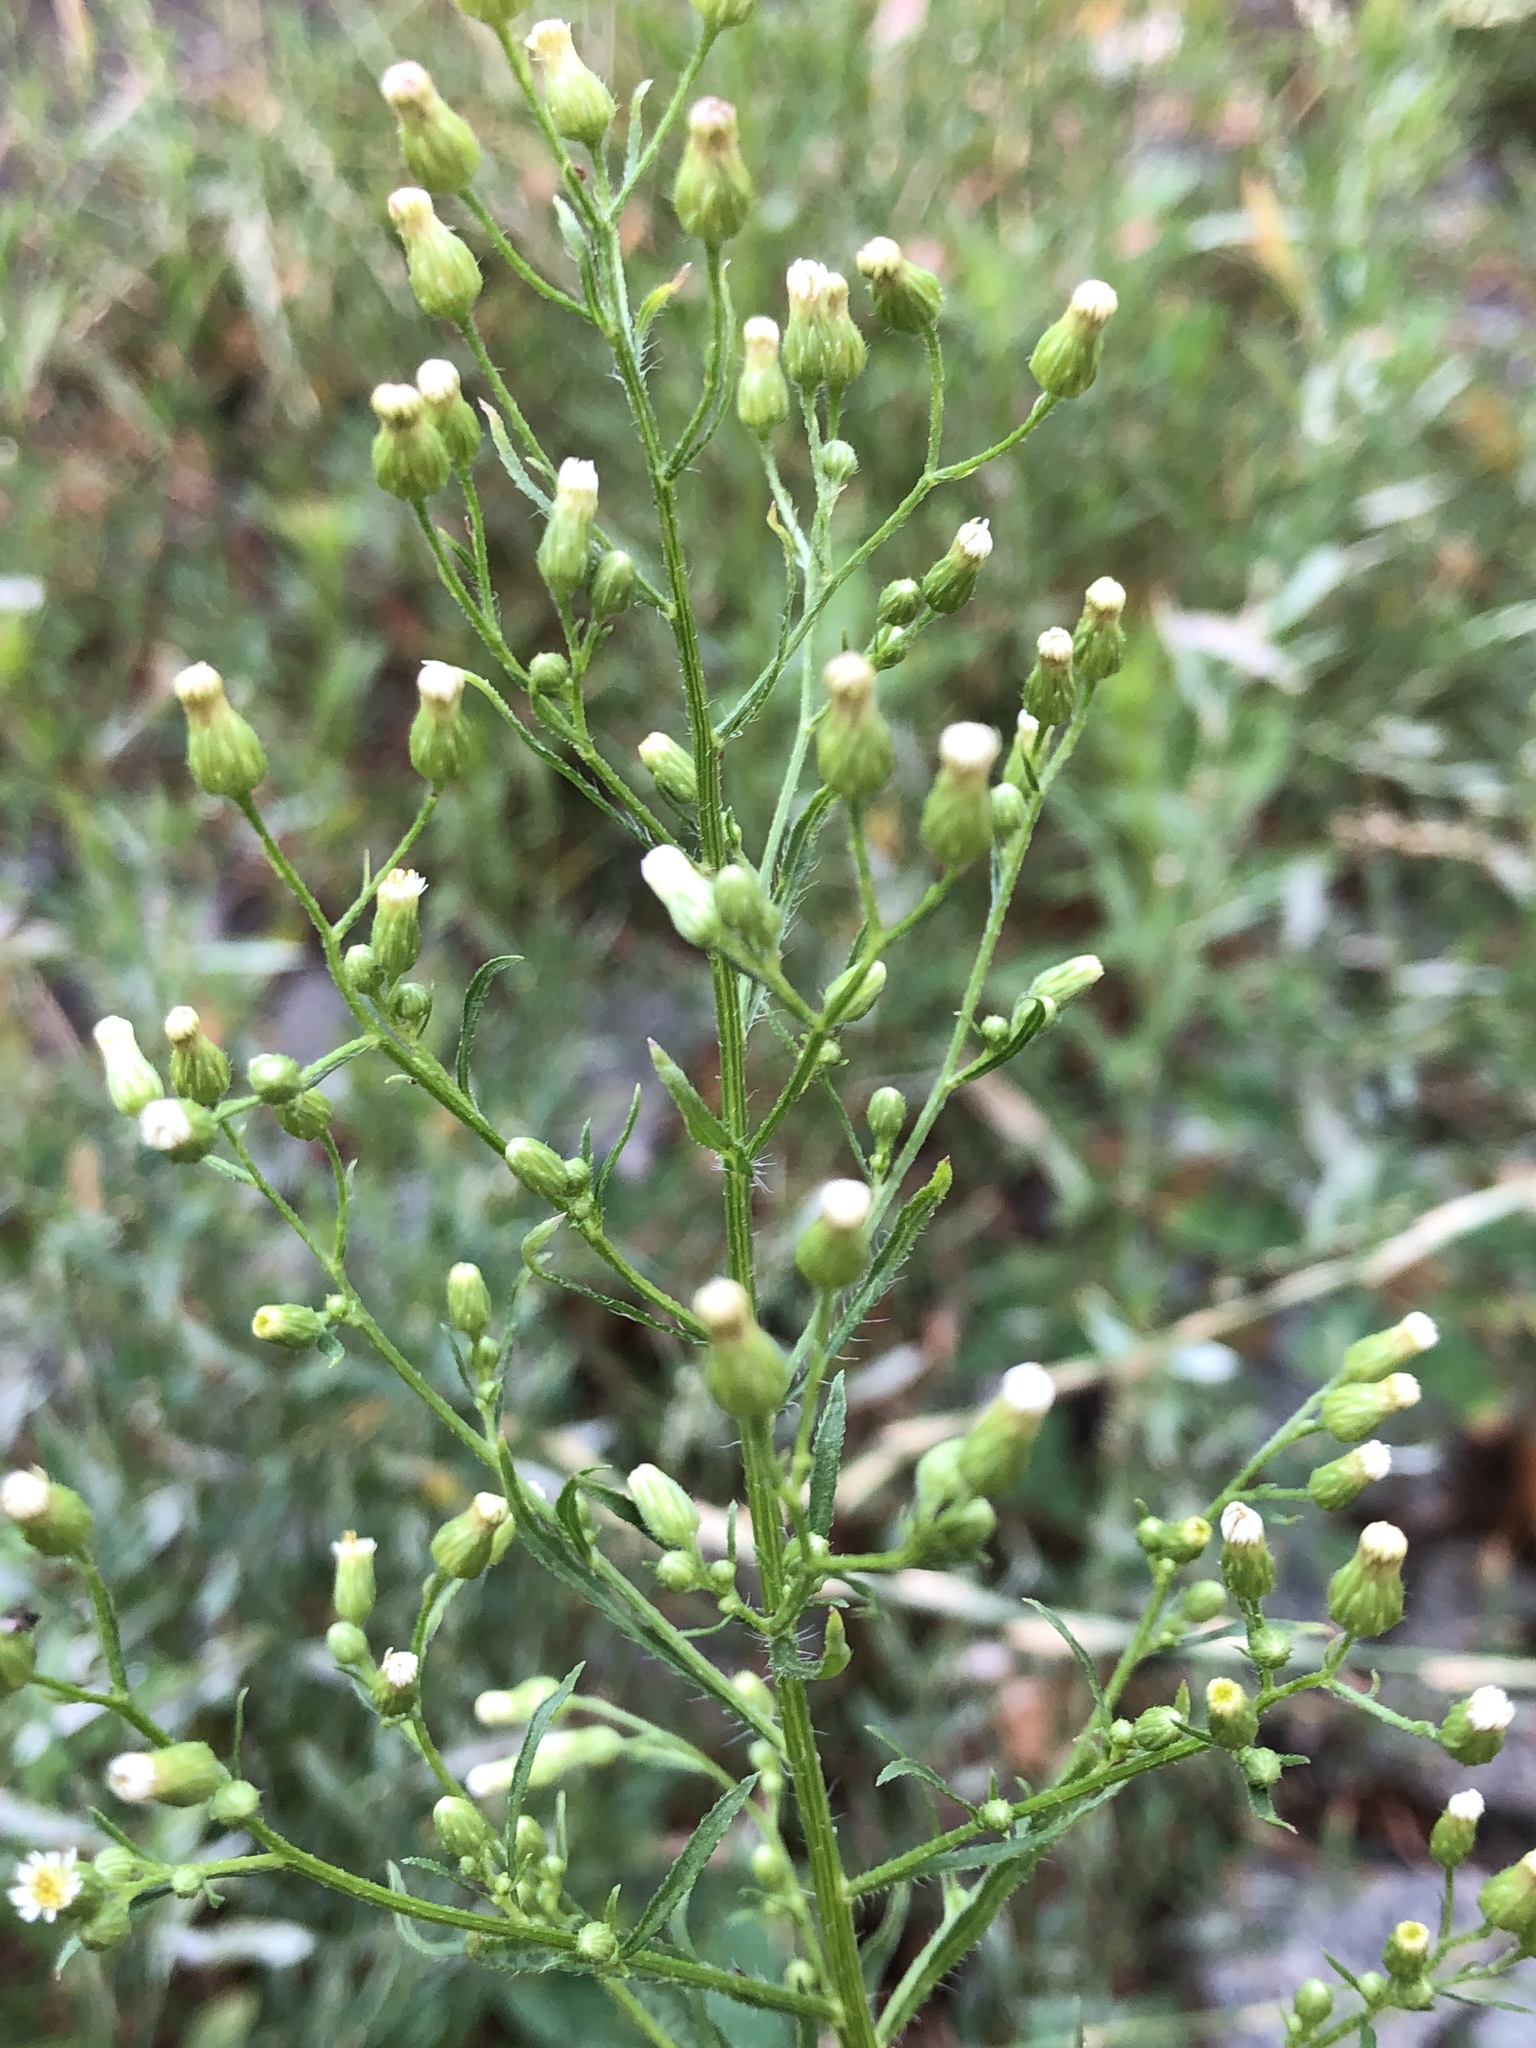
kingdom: Plantae
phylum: Tracheophyta
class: Magnoliopsida
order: Asterales
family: Asteraceae
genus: Erigeron
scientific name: Erigeron canadensis
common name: Canadian fleabane
